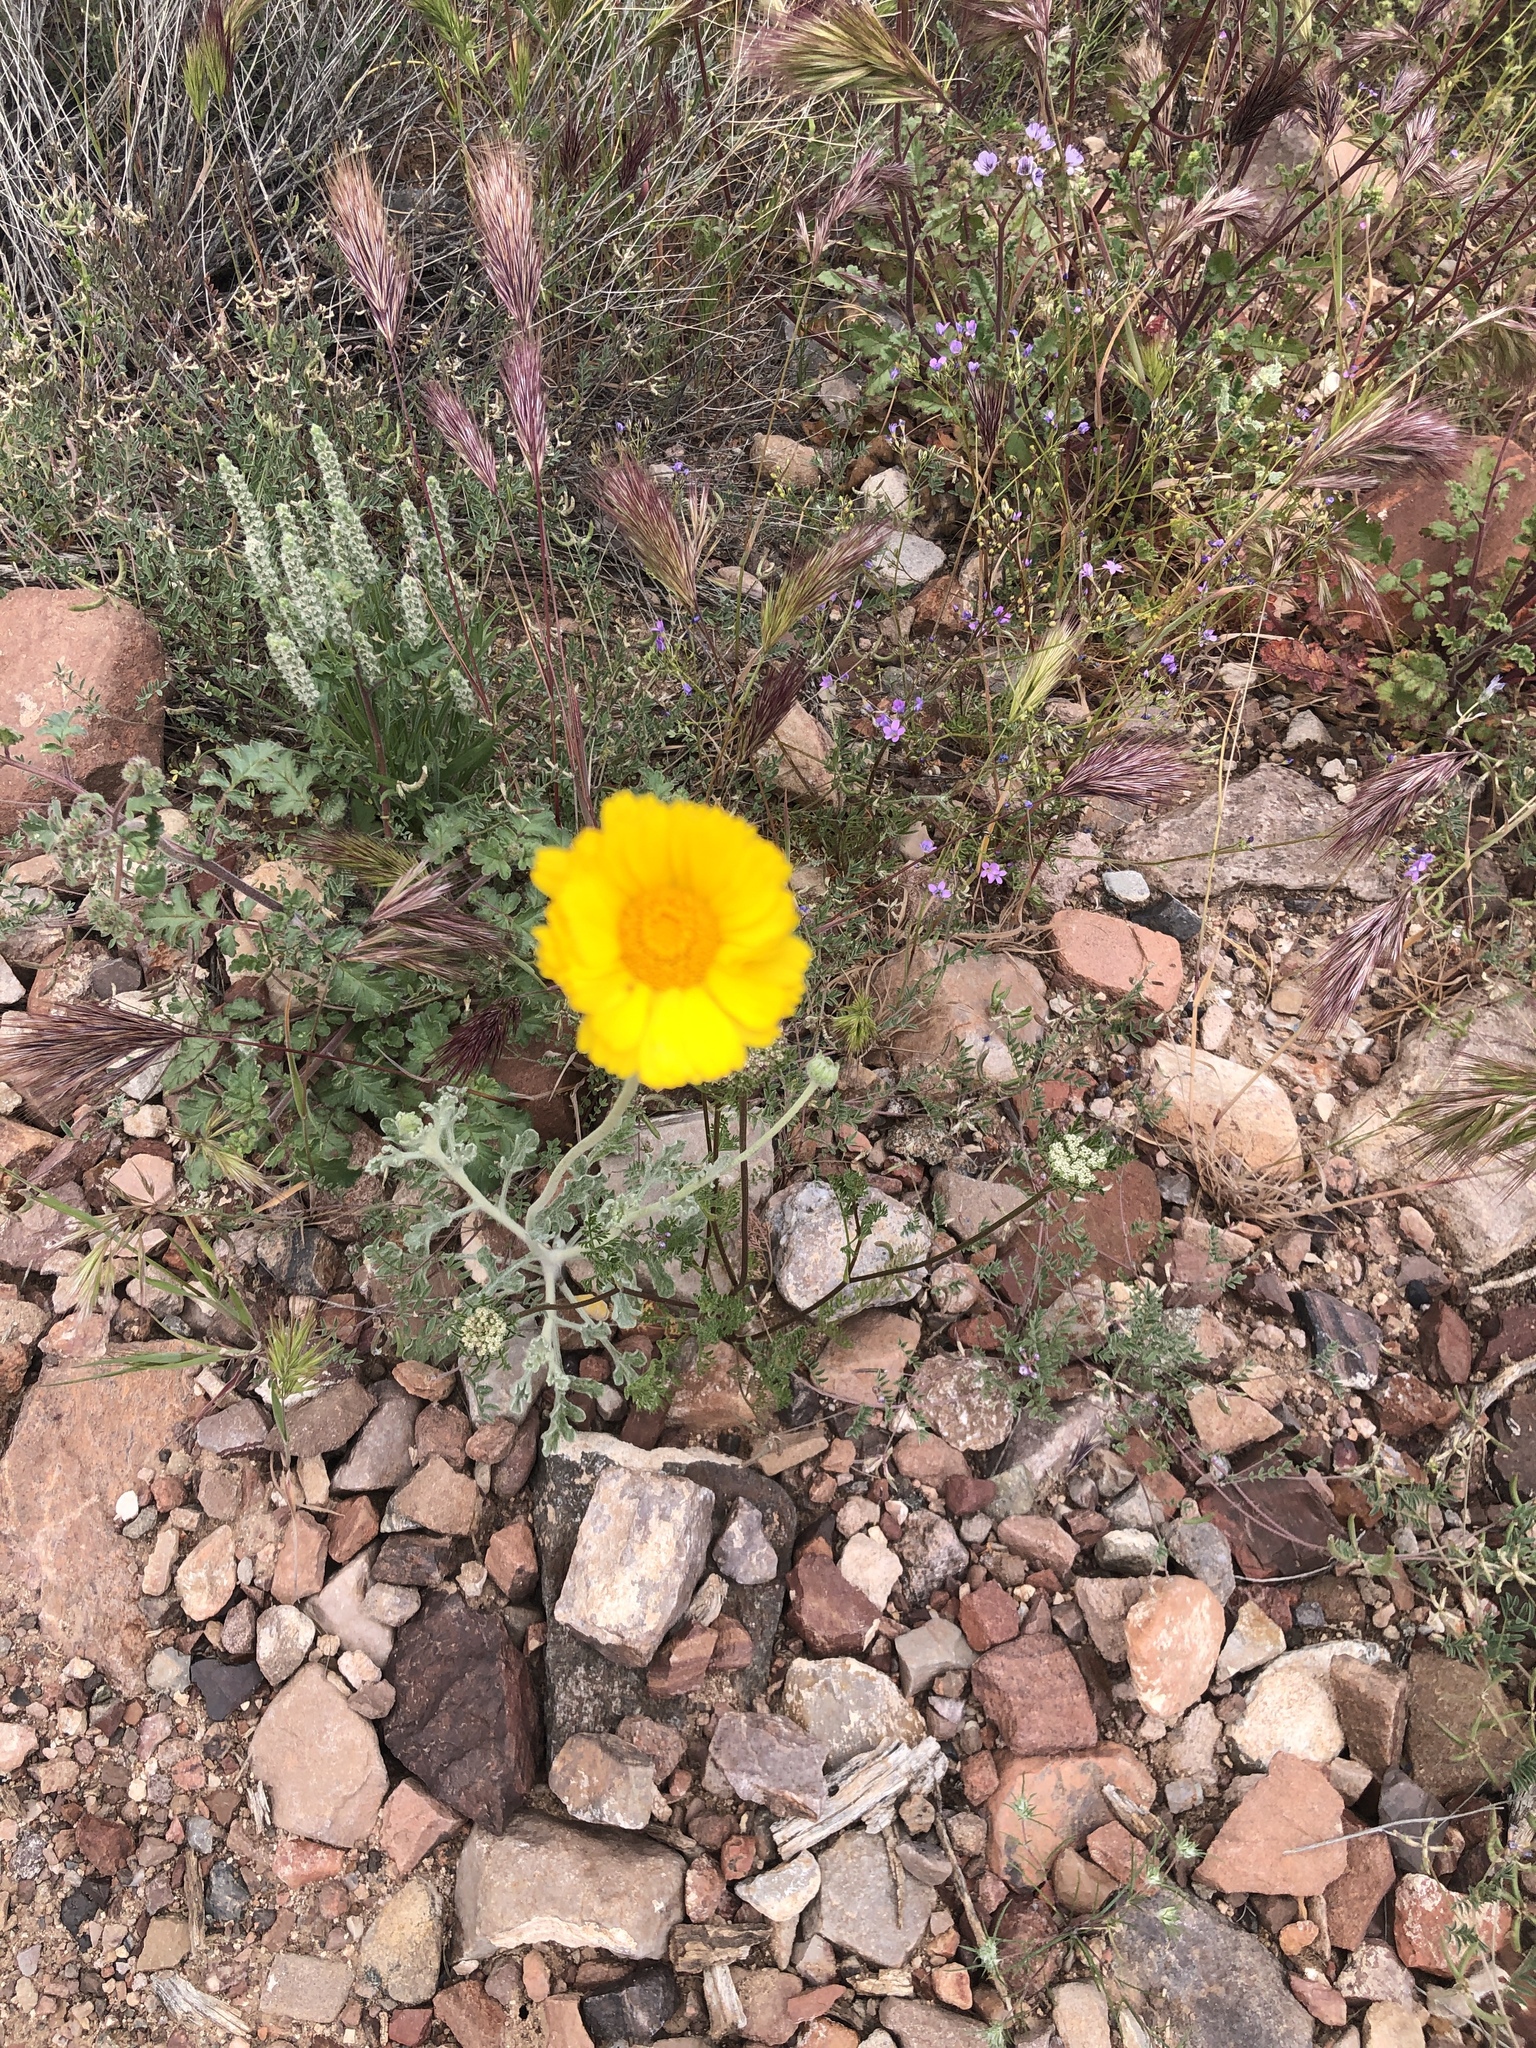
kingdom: Plantae
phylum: Tracheophyta
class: Magnoliopsida
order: Asterales
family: Asteraceae
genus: Baileya
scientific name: Baileya multiradiata
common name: Desert-marigold
